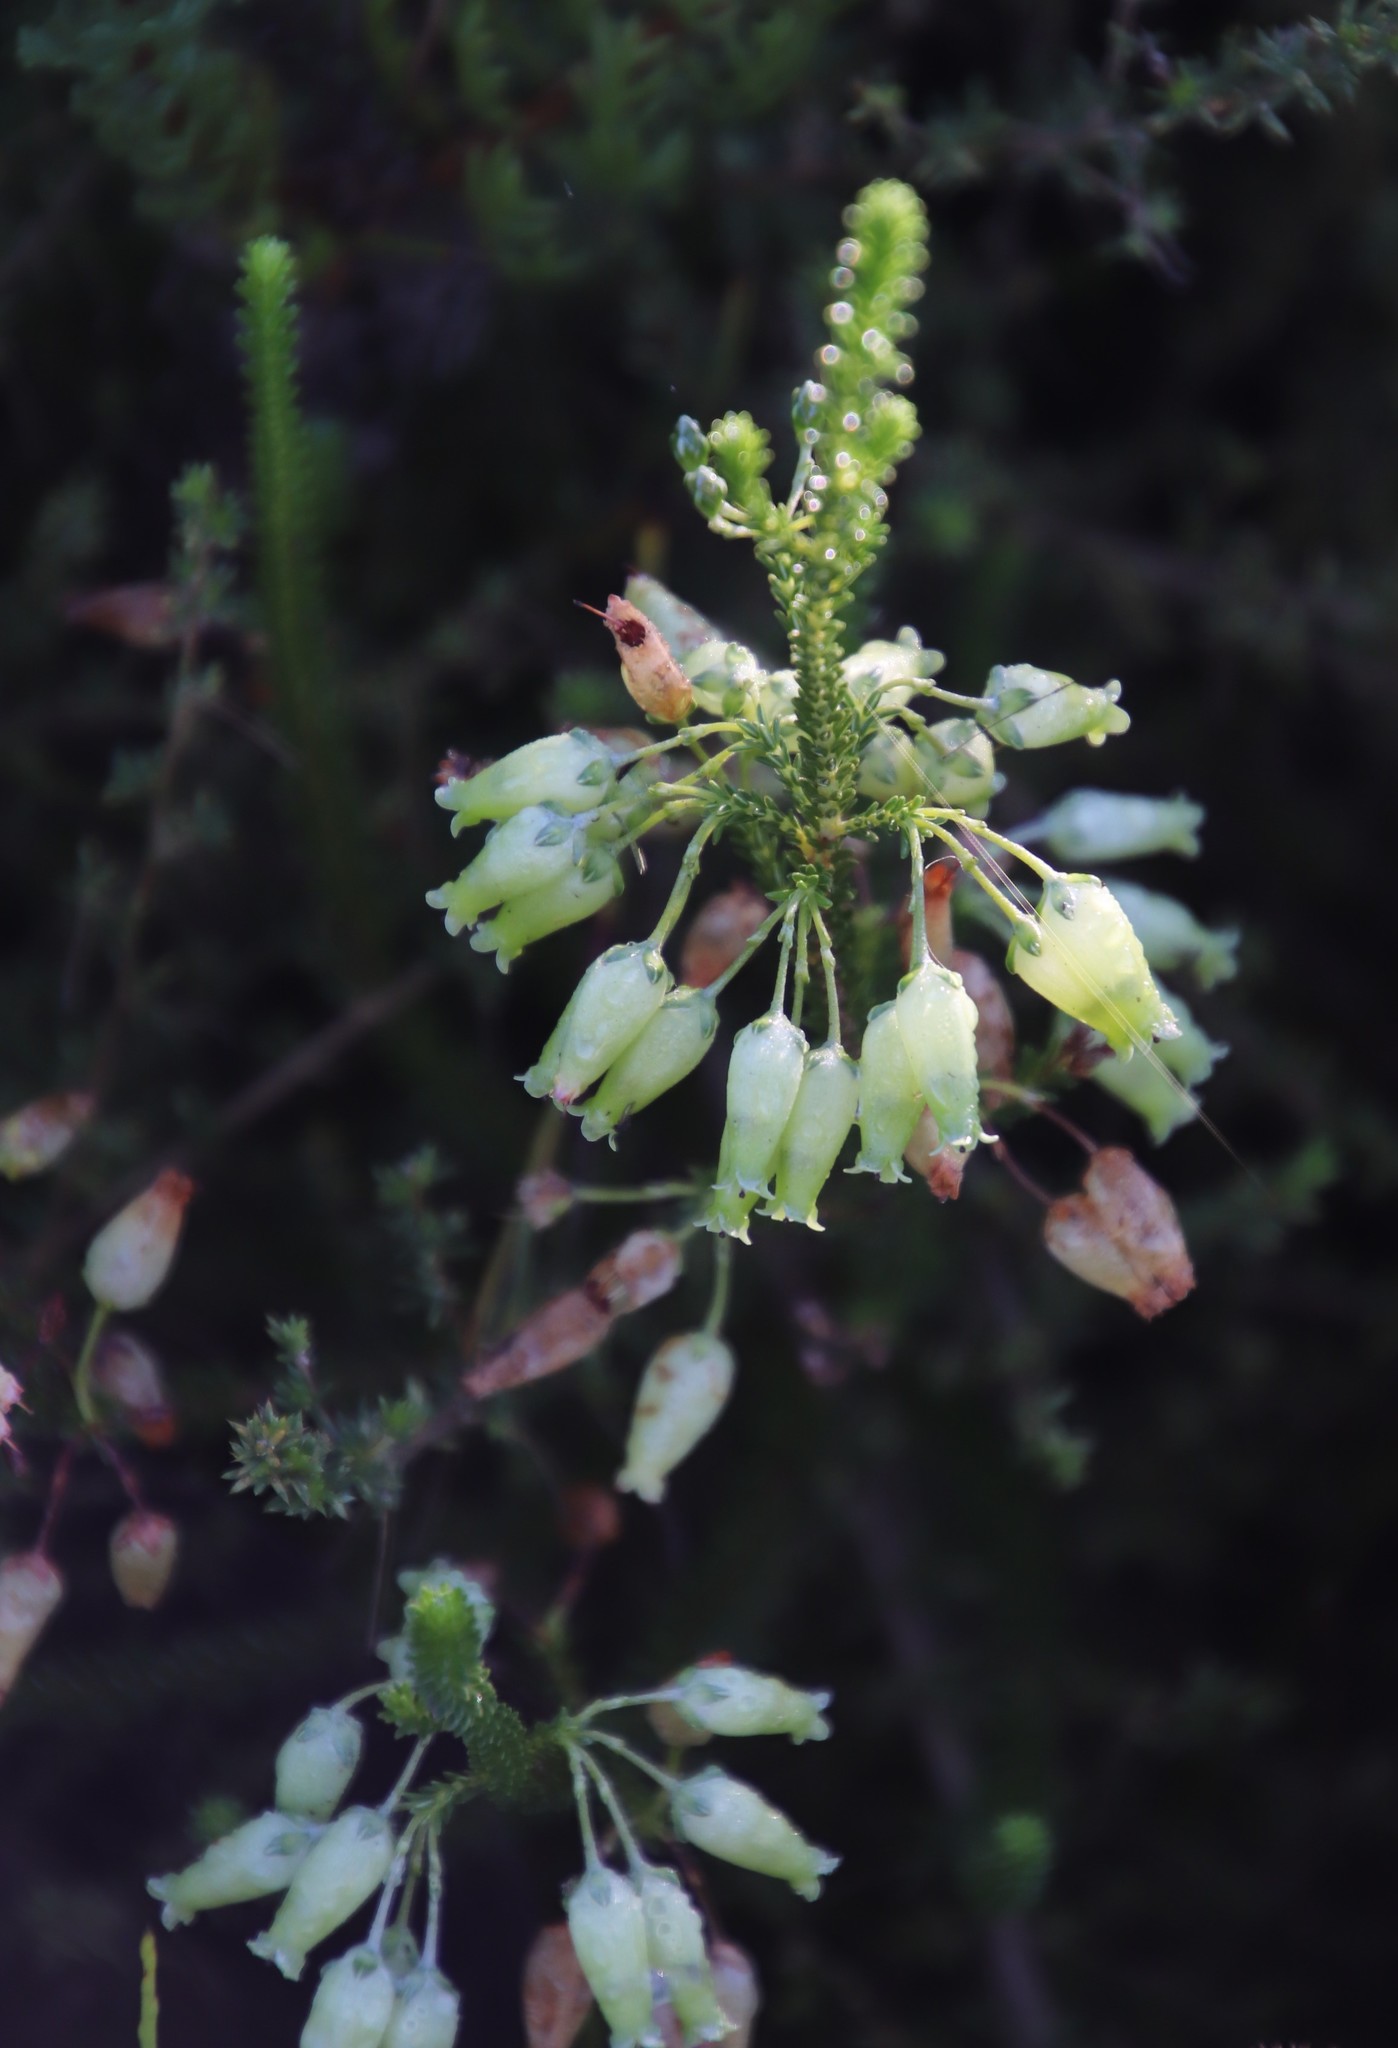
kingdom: Plantae
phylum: Tracheophyta
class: Magnoliopsida
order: Ericales
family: Ericaceae
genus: Erica
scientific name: Erica urna-viridis
